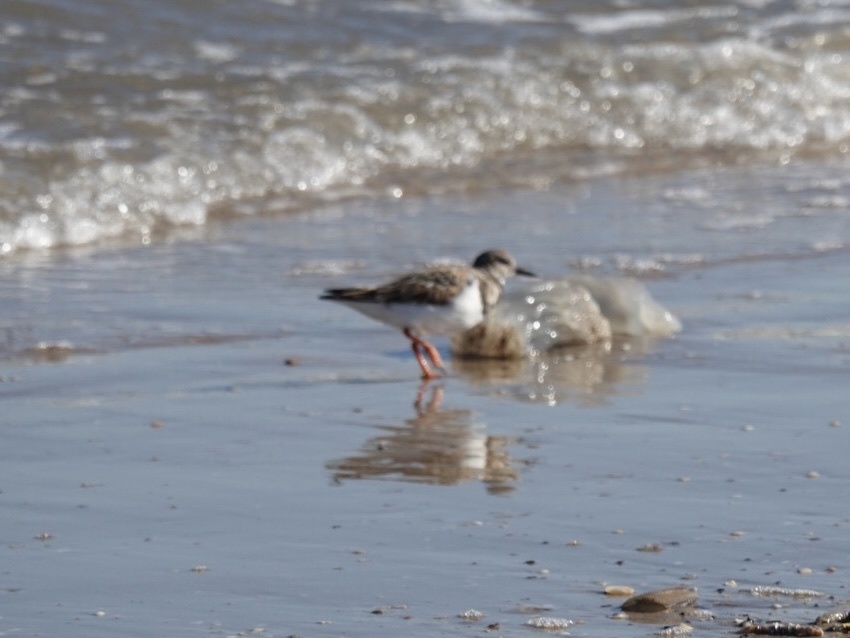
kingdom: Animalia
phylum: Chordata
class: Aves
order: Charadriiformes
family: Scolopacidae
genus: Arenaria
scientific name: Arenaria interpres
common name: Ruddy turnstone
